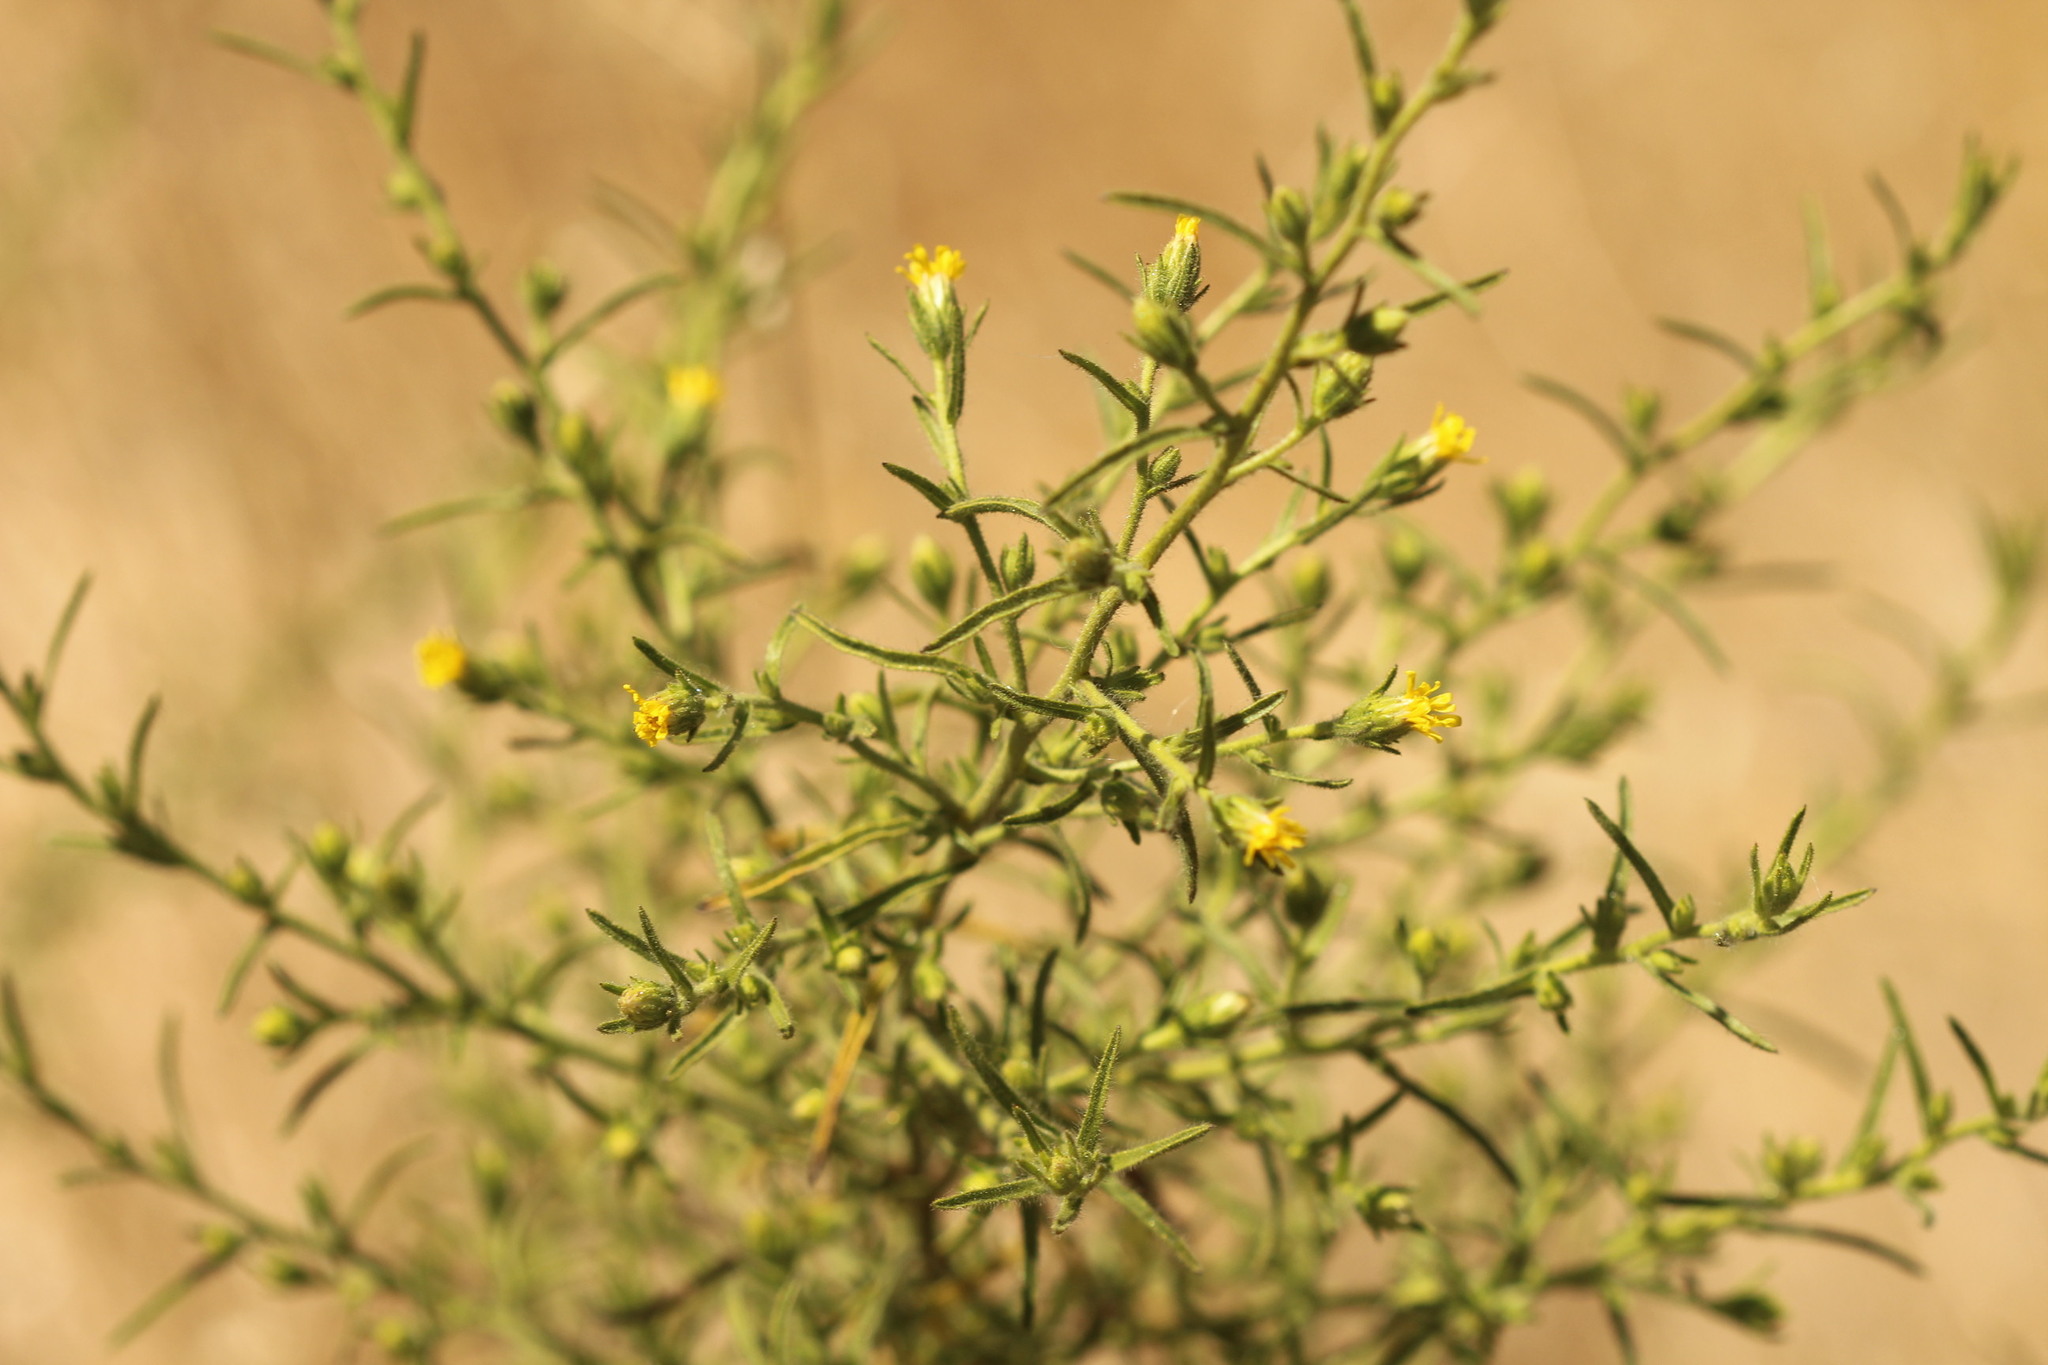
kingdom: Plantae
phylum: Tracheophyta
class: Magnoliopsida
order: Asterales
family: Asteraceae
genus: Dittrichia
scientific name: Dittrichia graveolens
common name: Stinking fleabane
